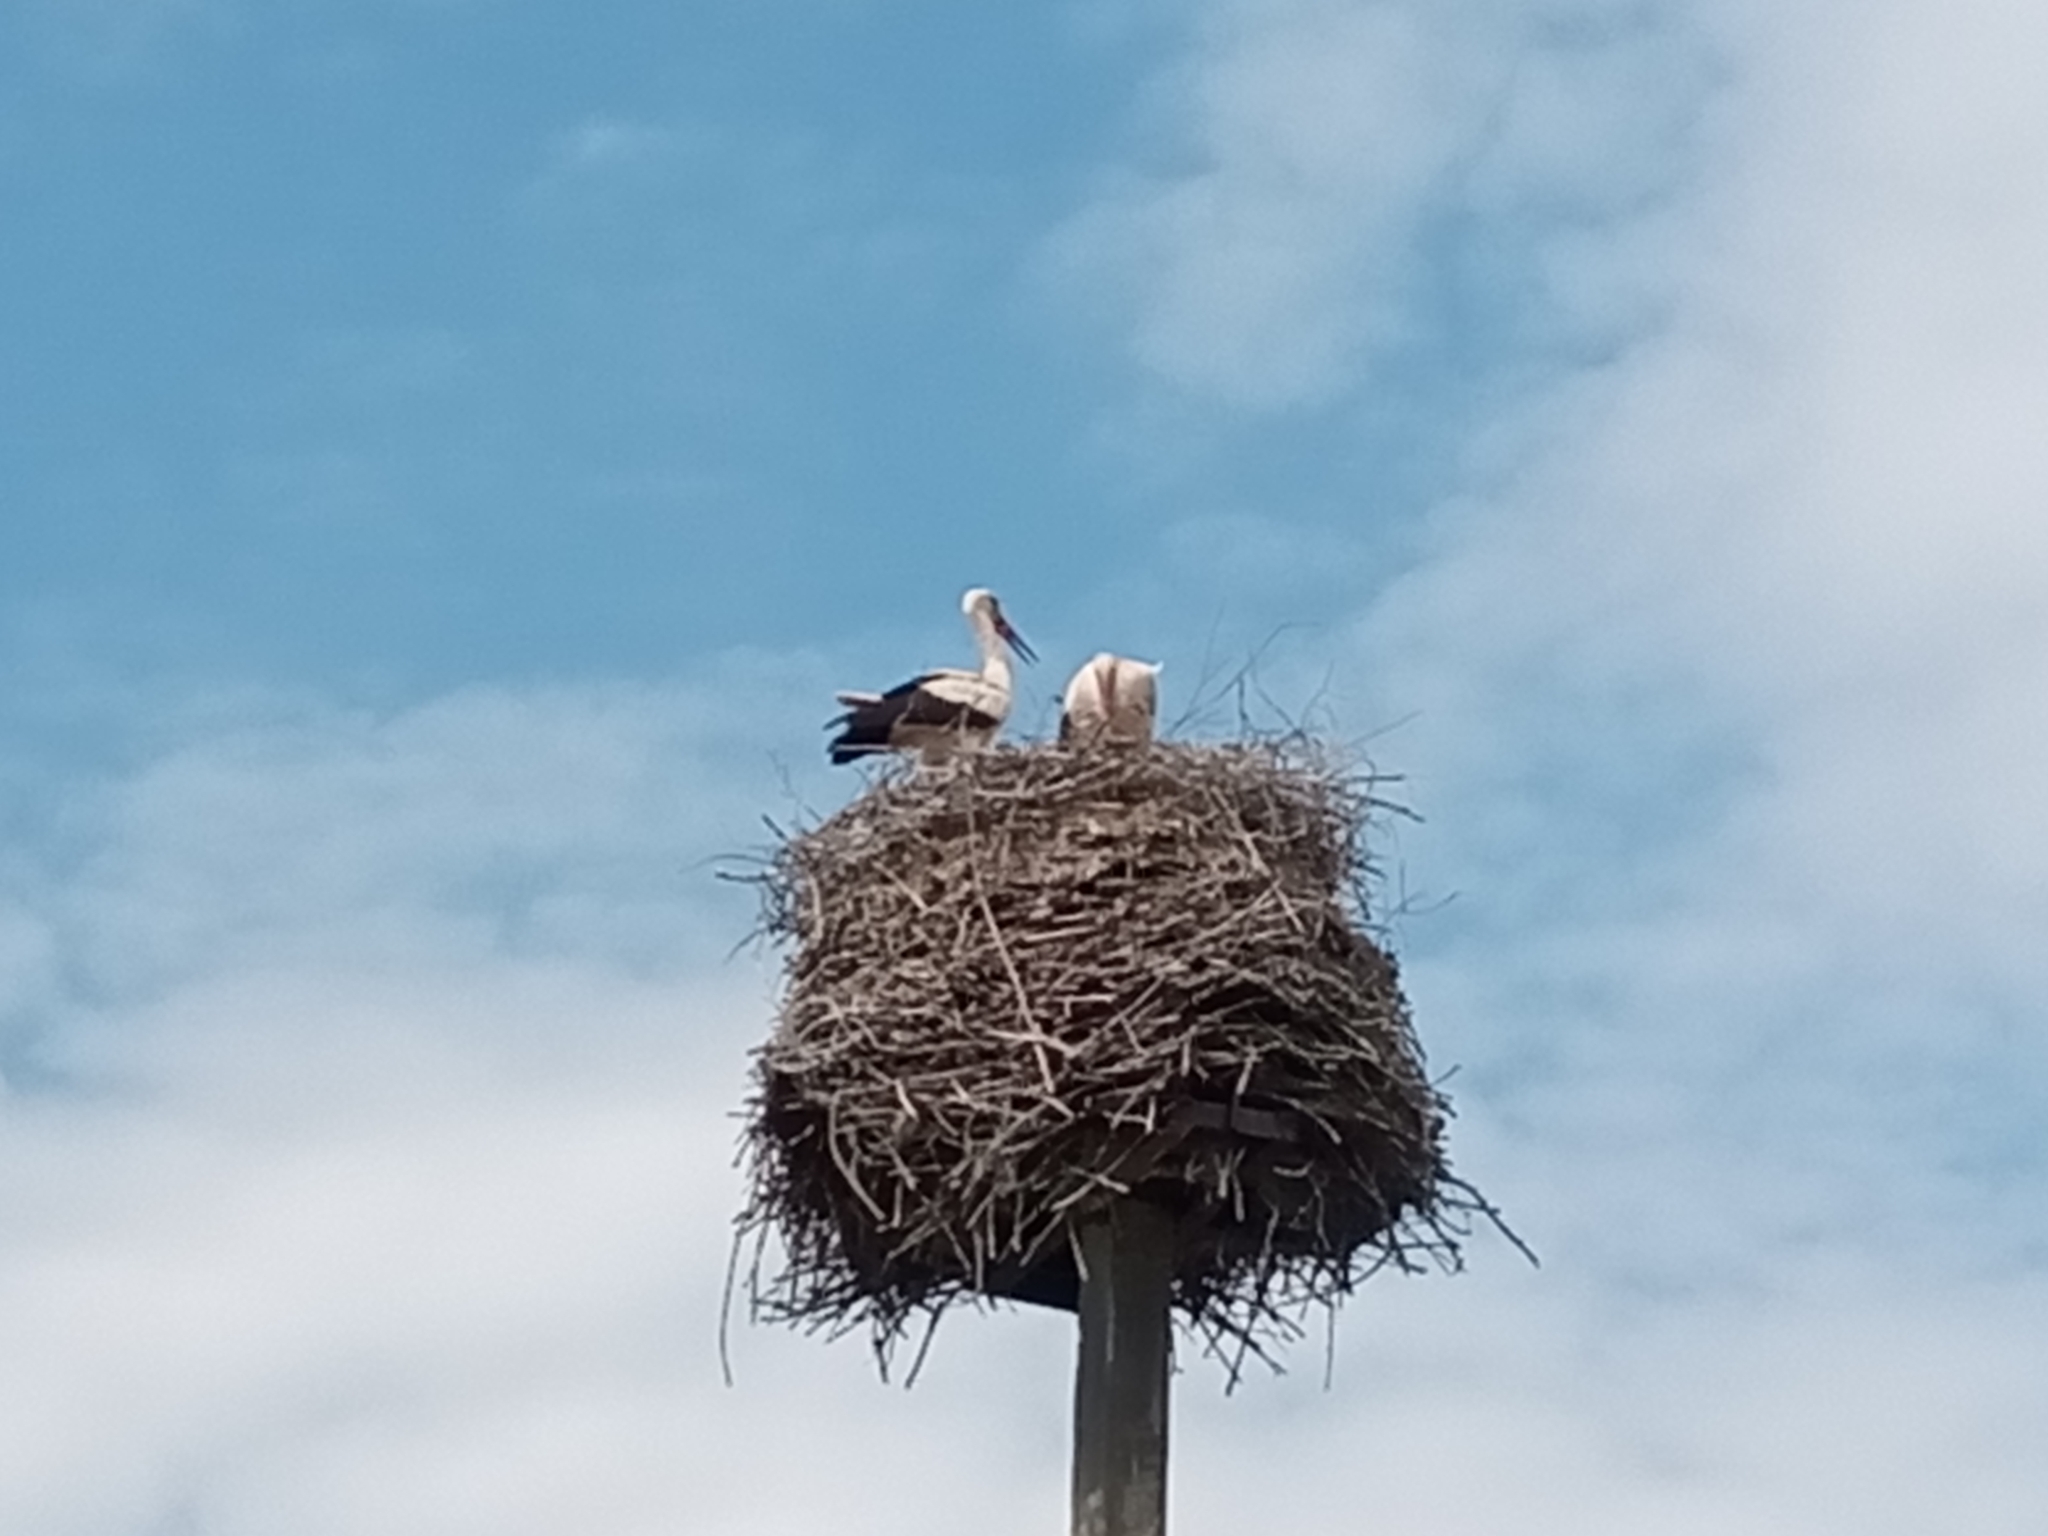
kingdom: Animalia
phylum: Chordata
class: Aves
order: Ciconiiformes
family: Ciconiidae
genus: Ciconia
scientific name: Ciconia ciconia
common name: White stork
